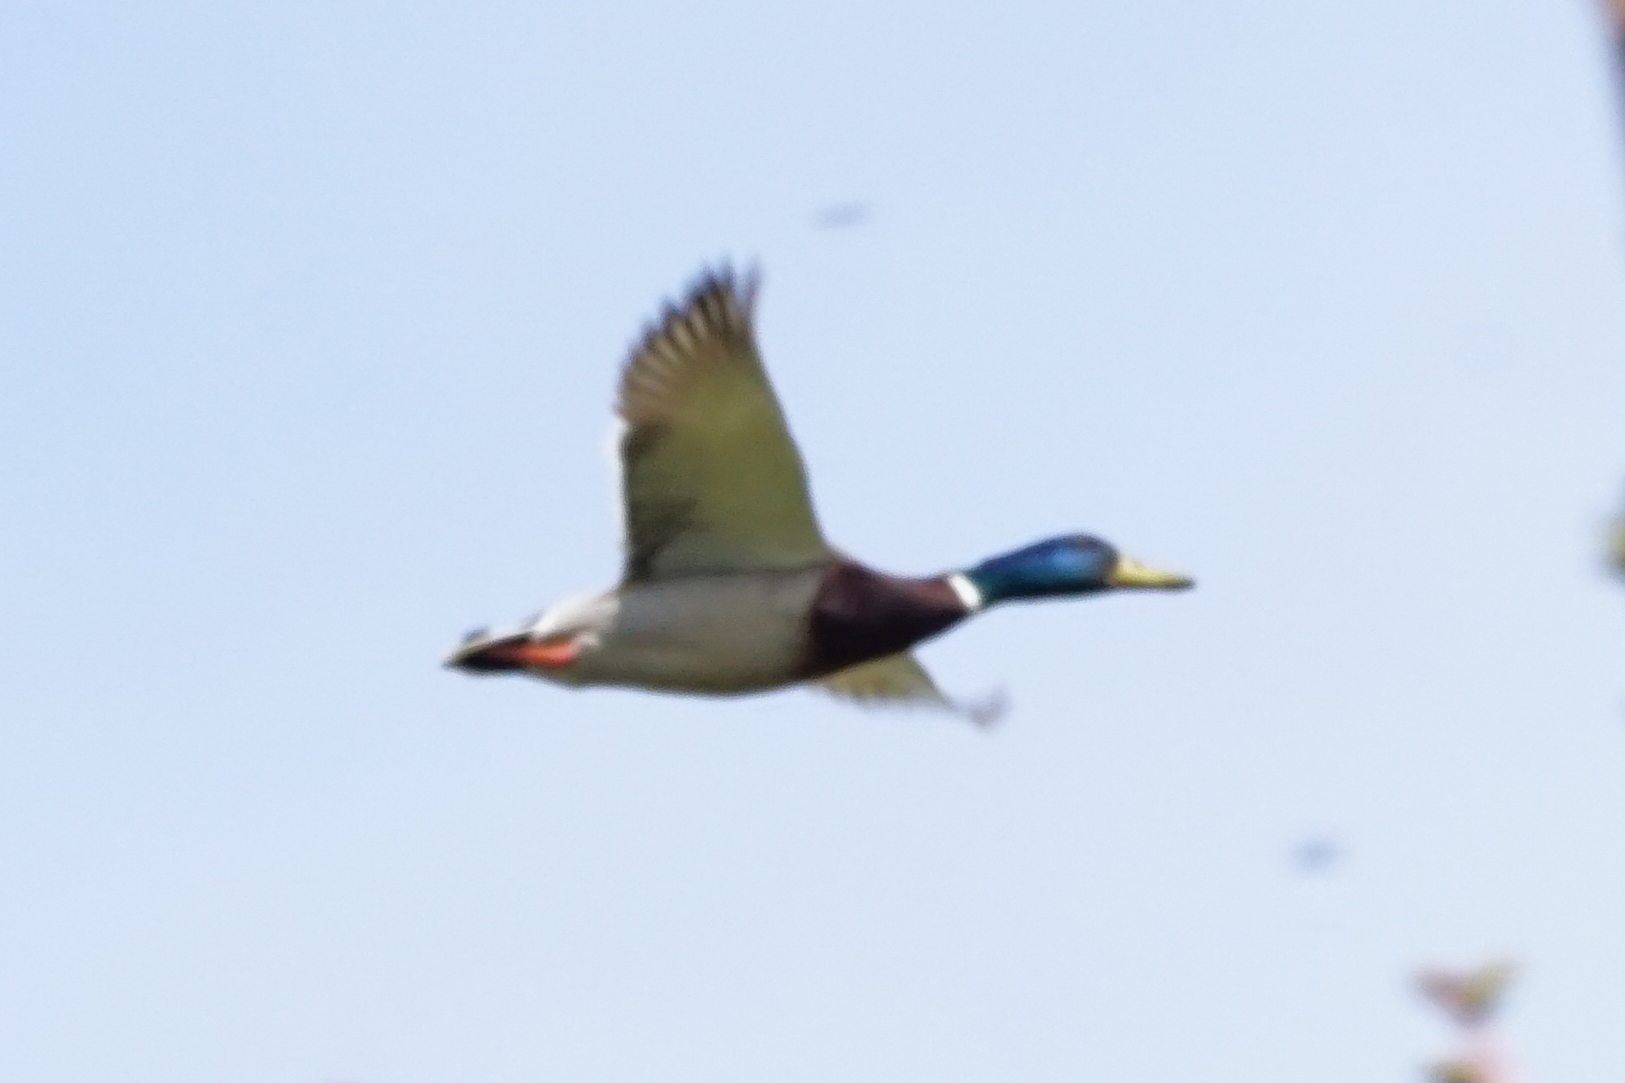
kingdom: Animalia
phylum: Chordata
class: Aves
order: Anseriformes
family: Anatidae
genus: Anas
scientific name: Anas platyrhynchos
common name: Mallard
